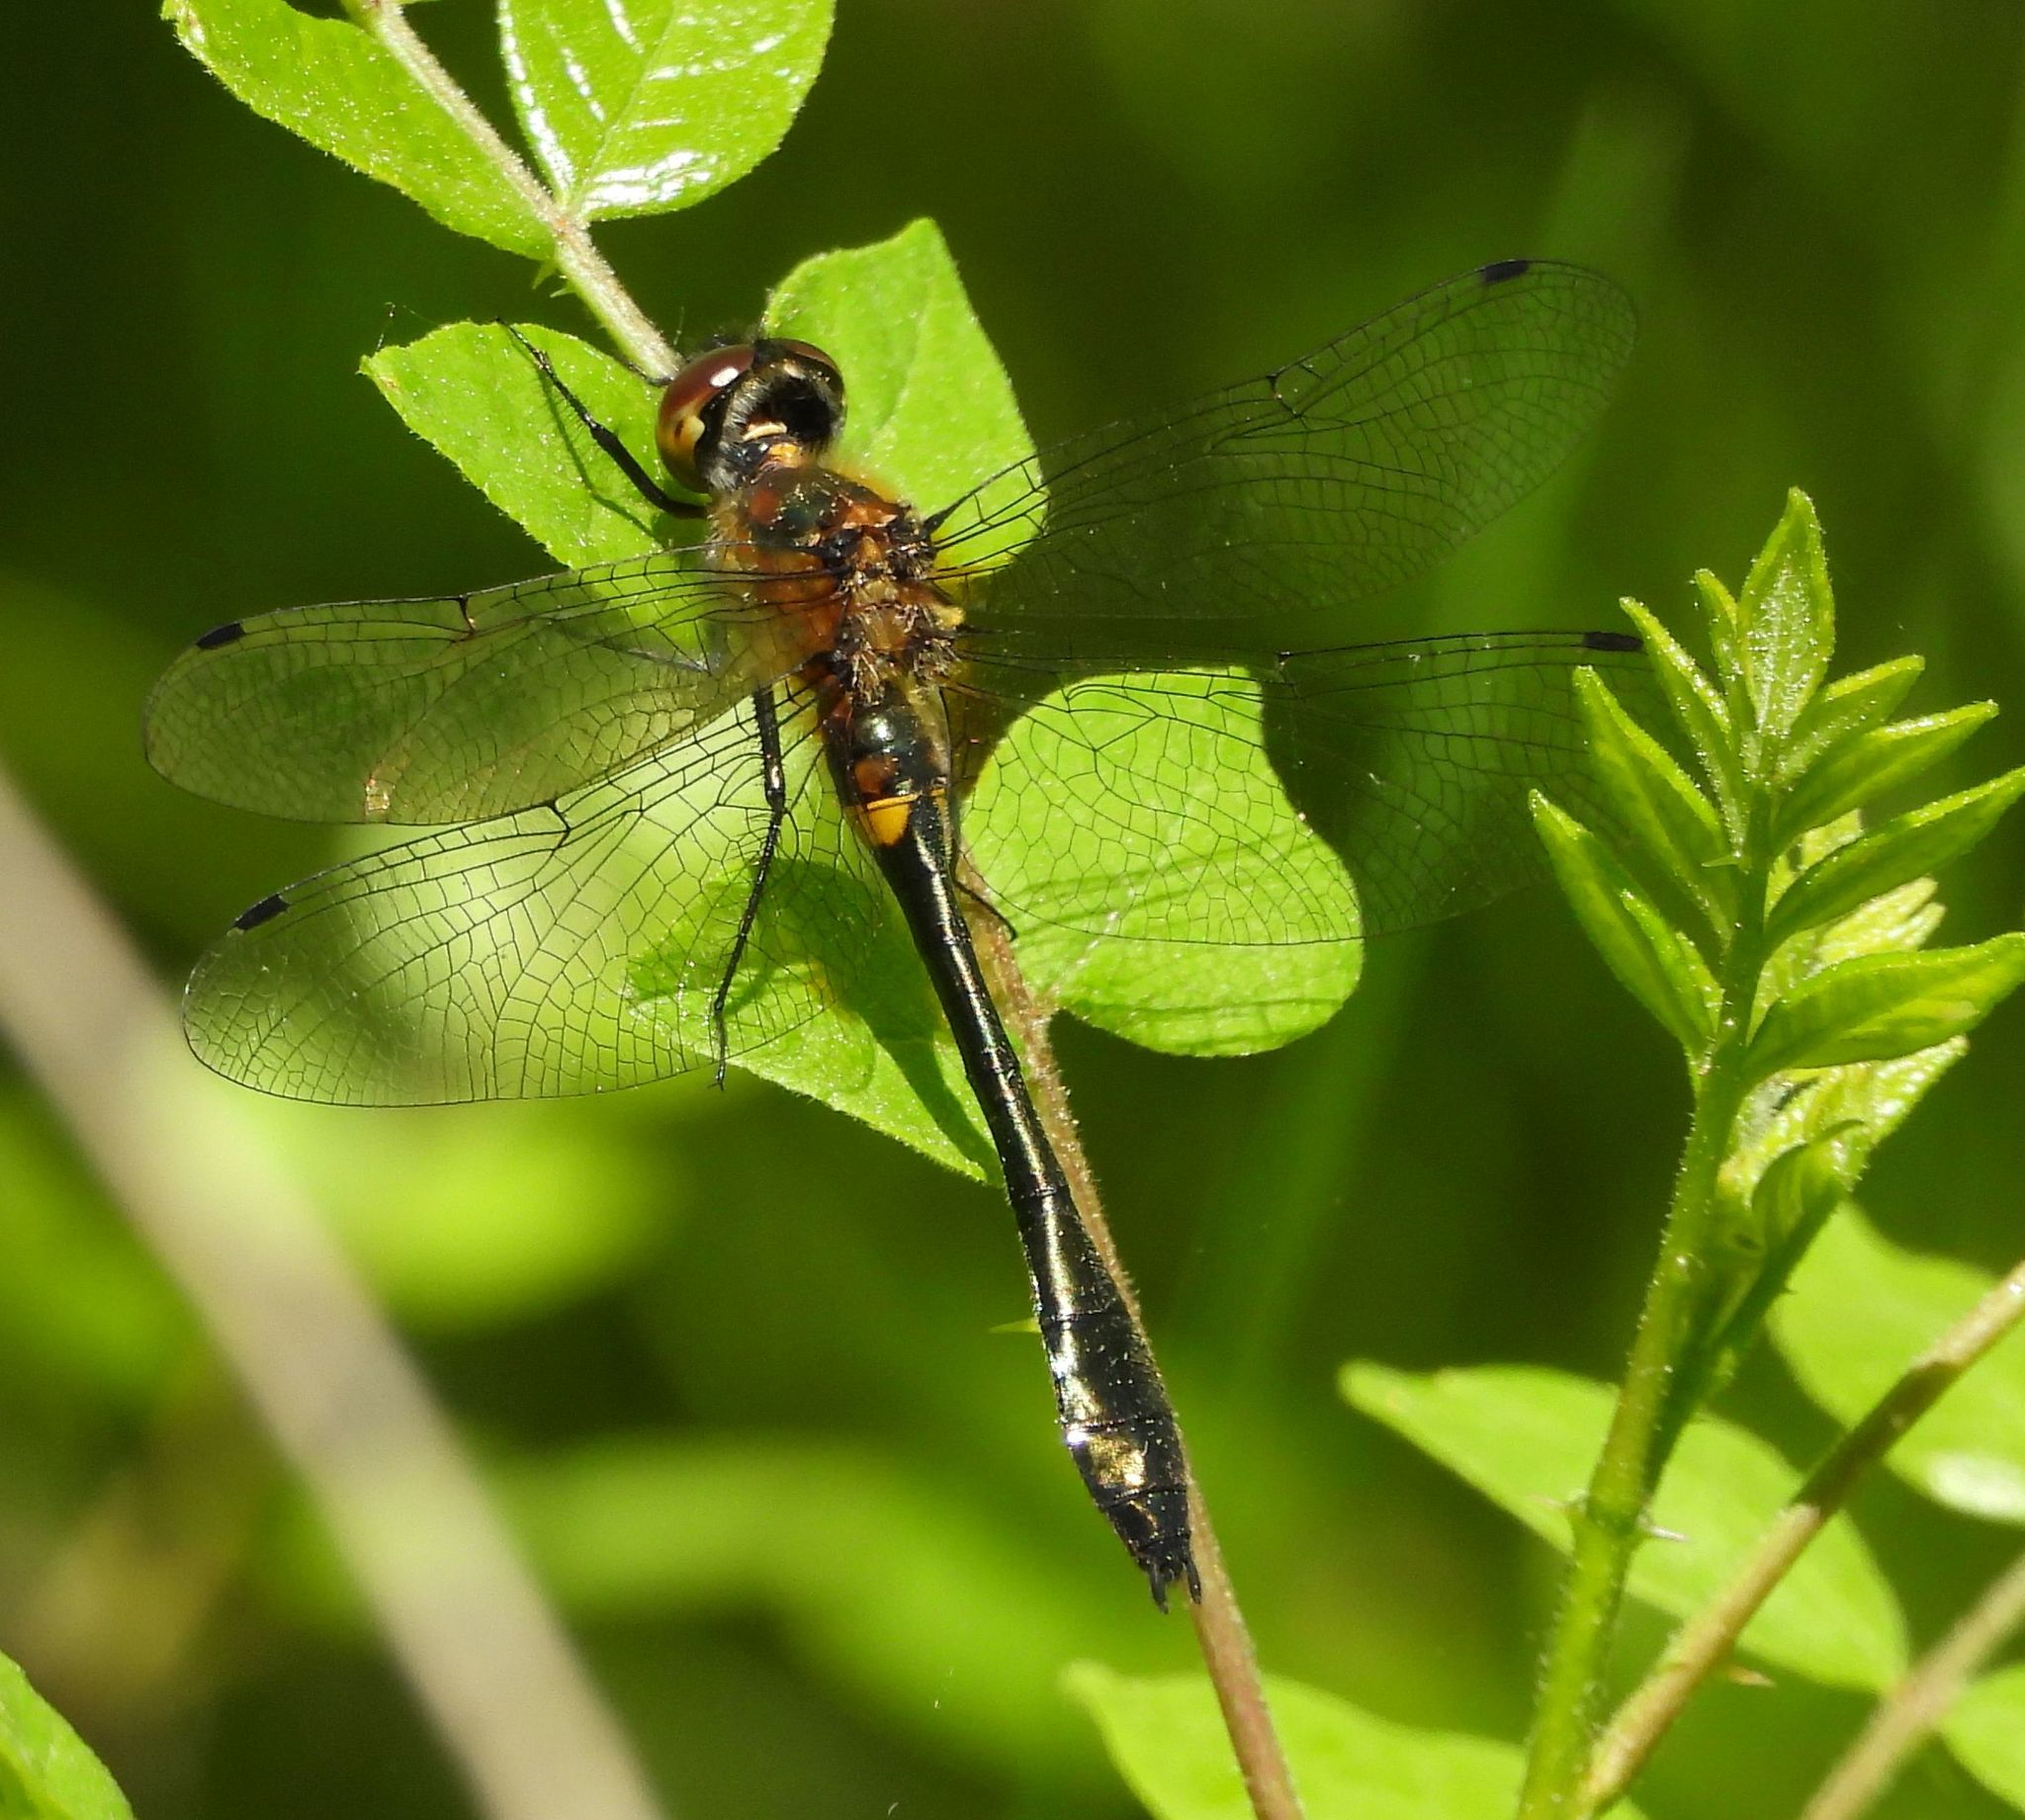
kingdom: Animalia
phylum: Arthropoda
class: Insecta
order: Odonata
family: Corduliidae
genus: Dorocordulia
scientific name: Dorocordulia libera
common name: Racket-tailed emerald
